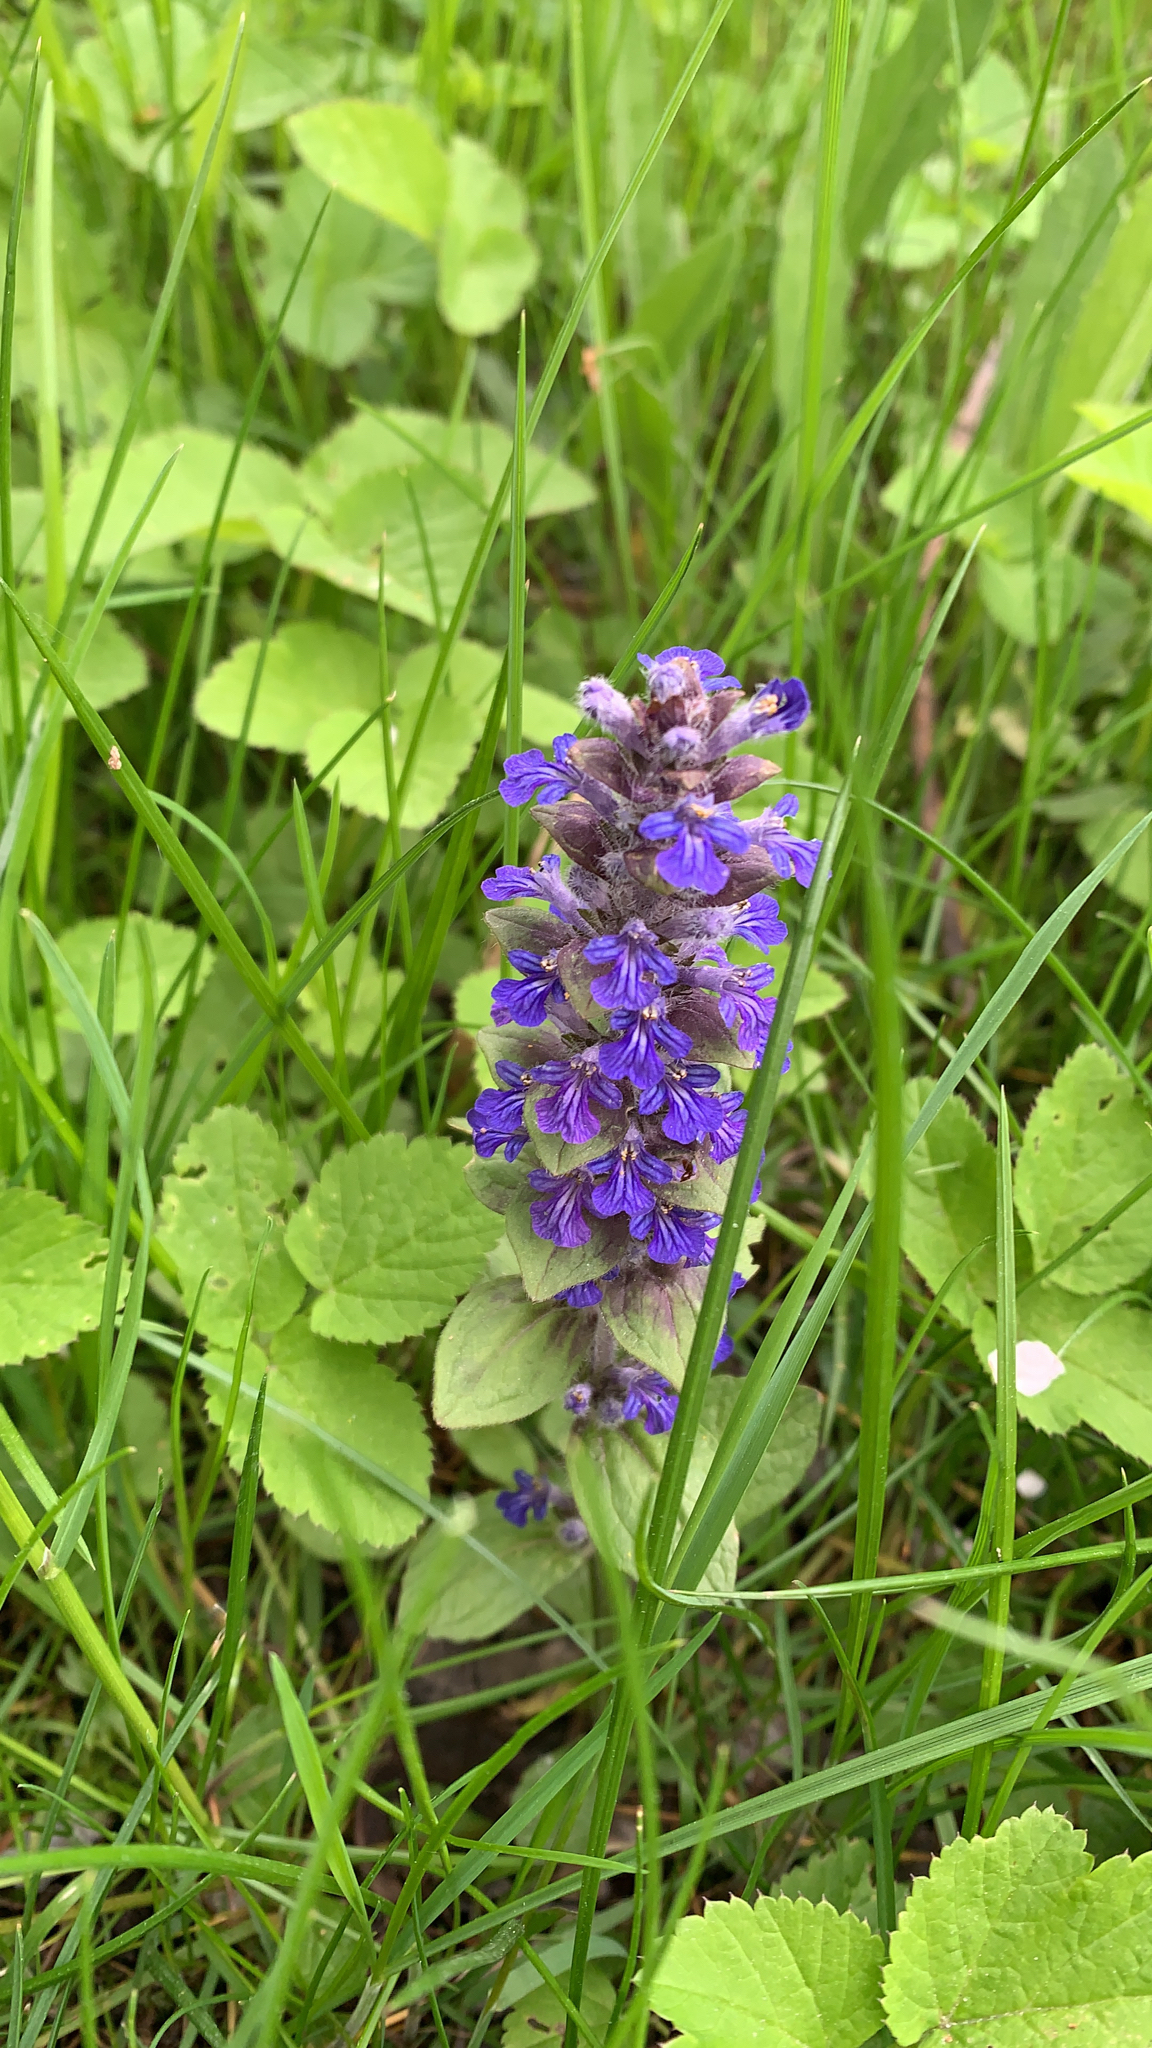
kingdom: Plantae
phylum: Tracheophyta
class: Magnoliopsida
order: Lamiales
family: Lamiaceae
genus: Ajuga
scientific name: Ajuga reptans
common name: Bugle
